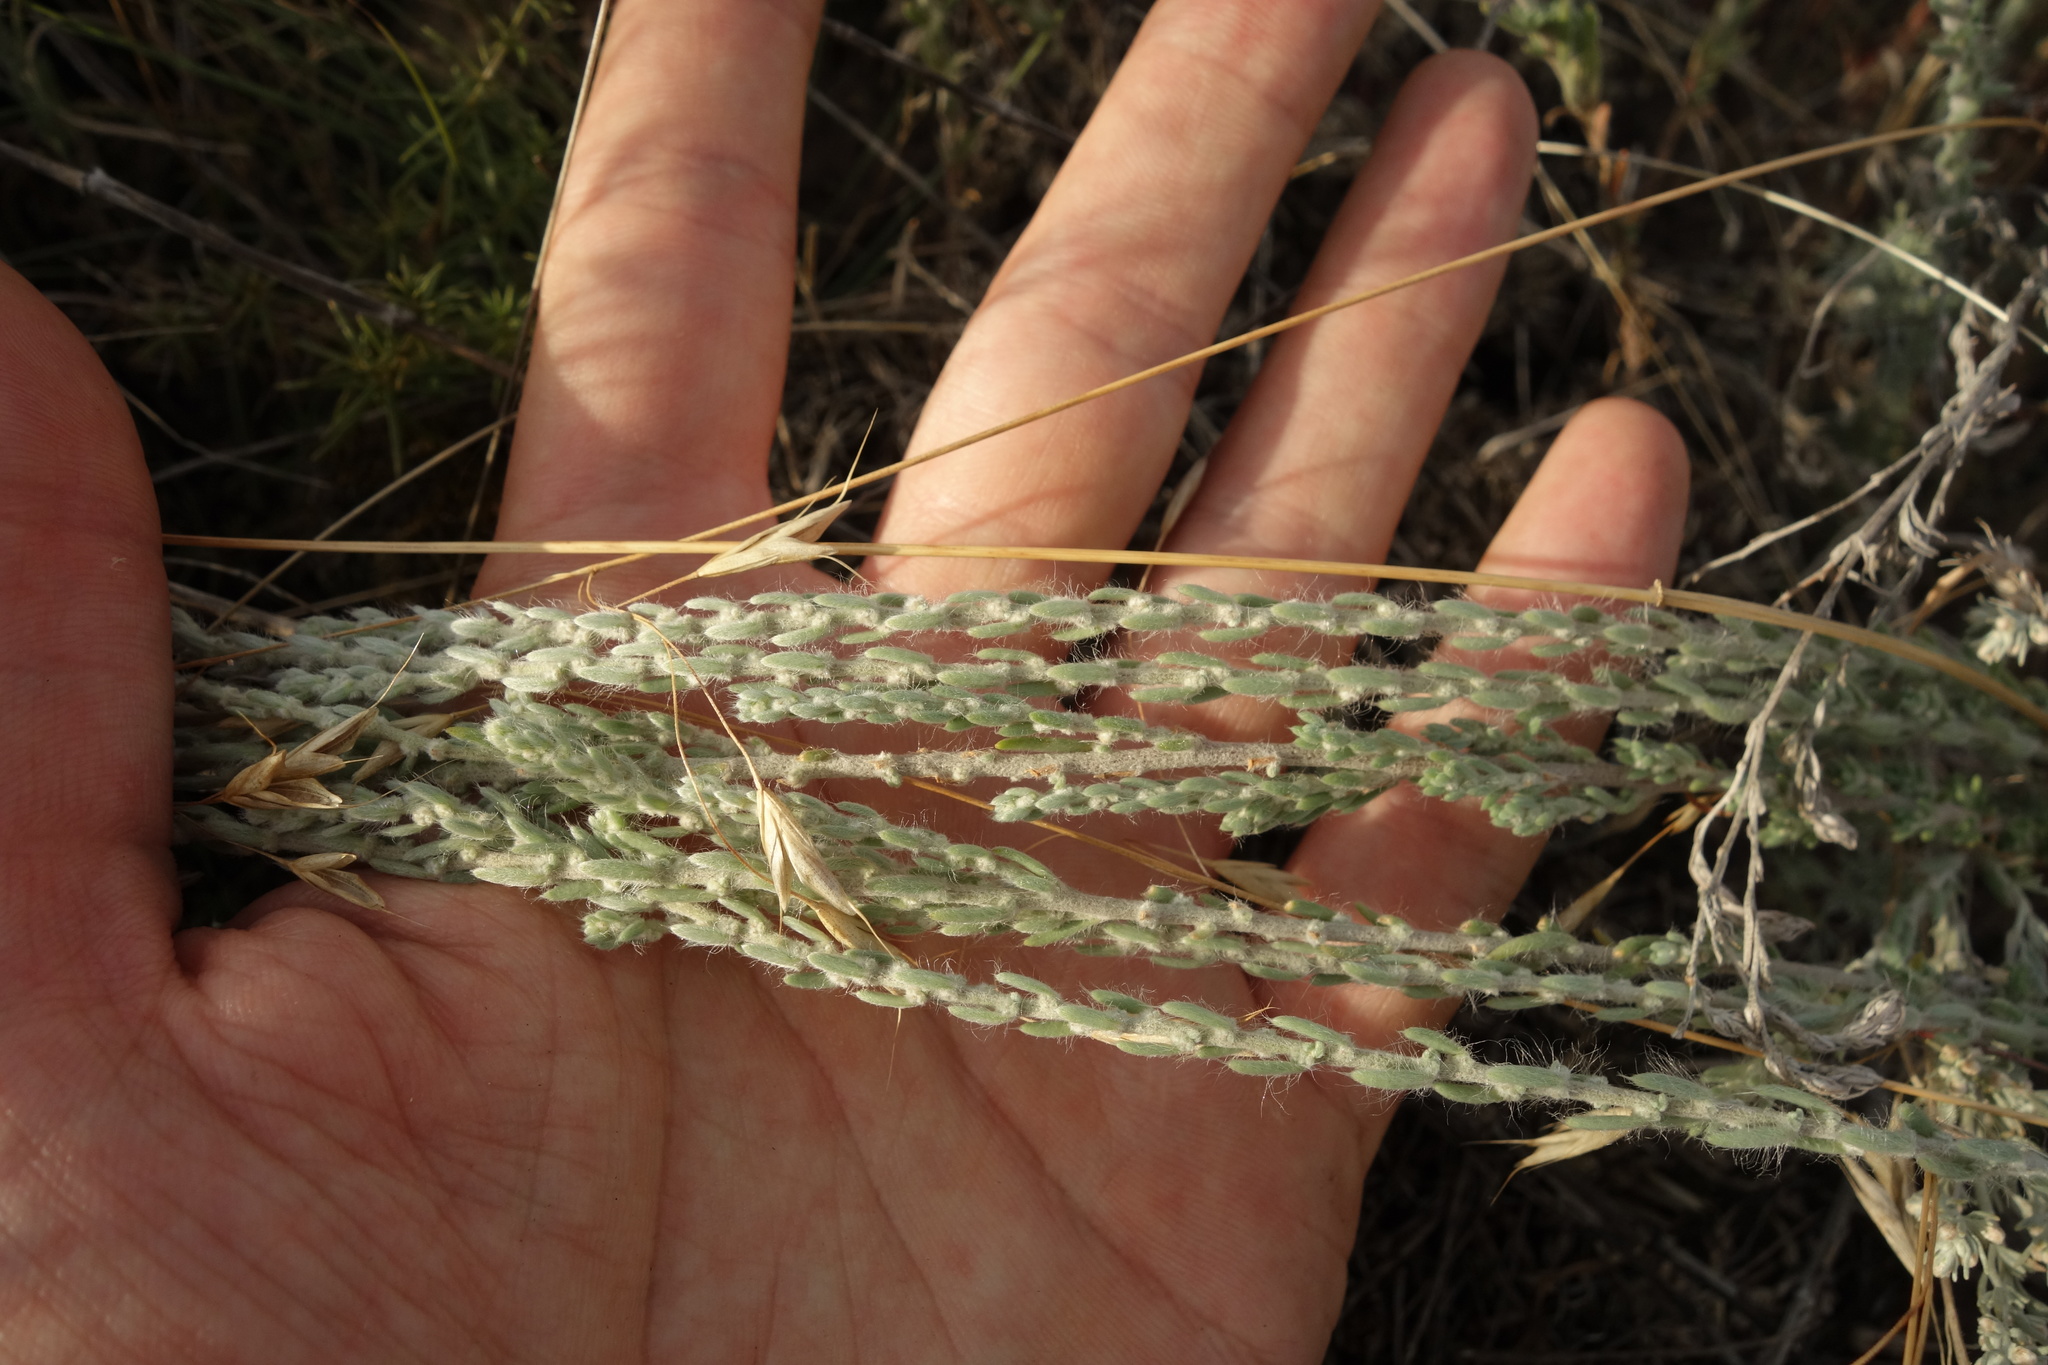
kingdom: Plantae
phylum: Tracheophyta
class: Magnoliopsida
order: Caryophyllales
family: Amaranthaceae
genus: Sedobassia
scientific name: Sedobassia sedoides
